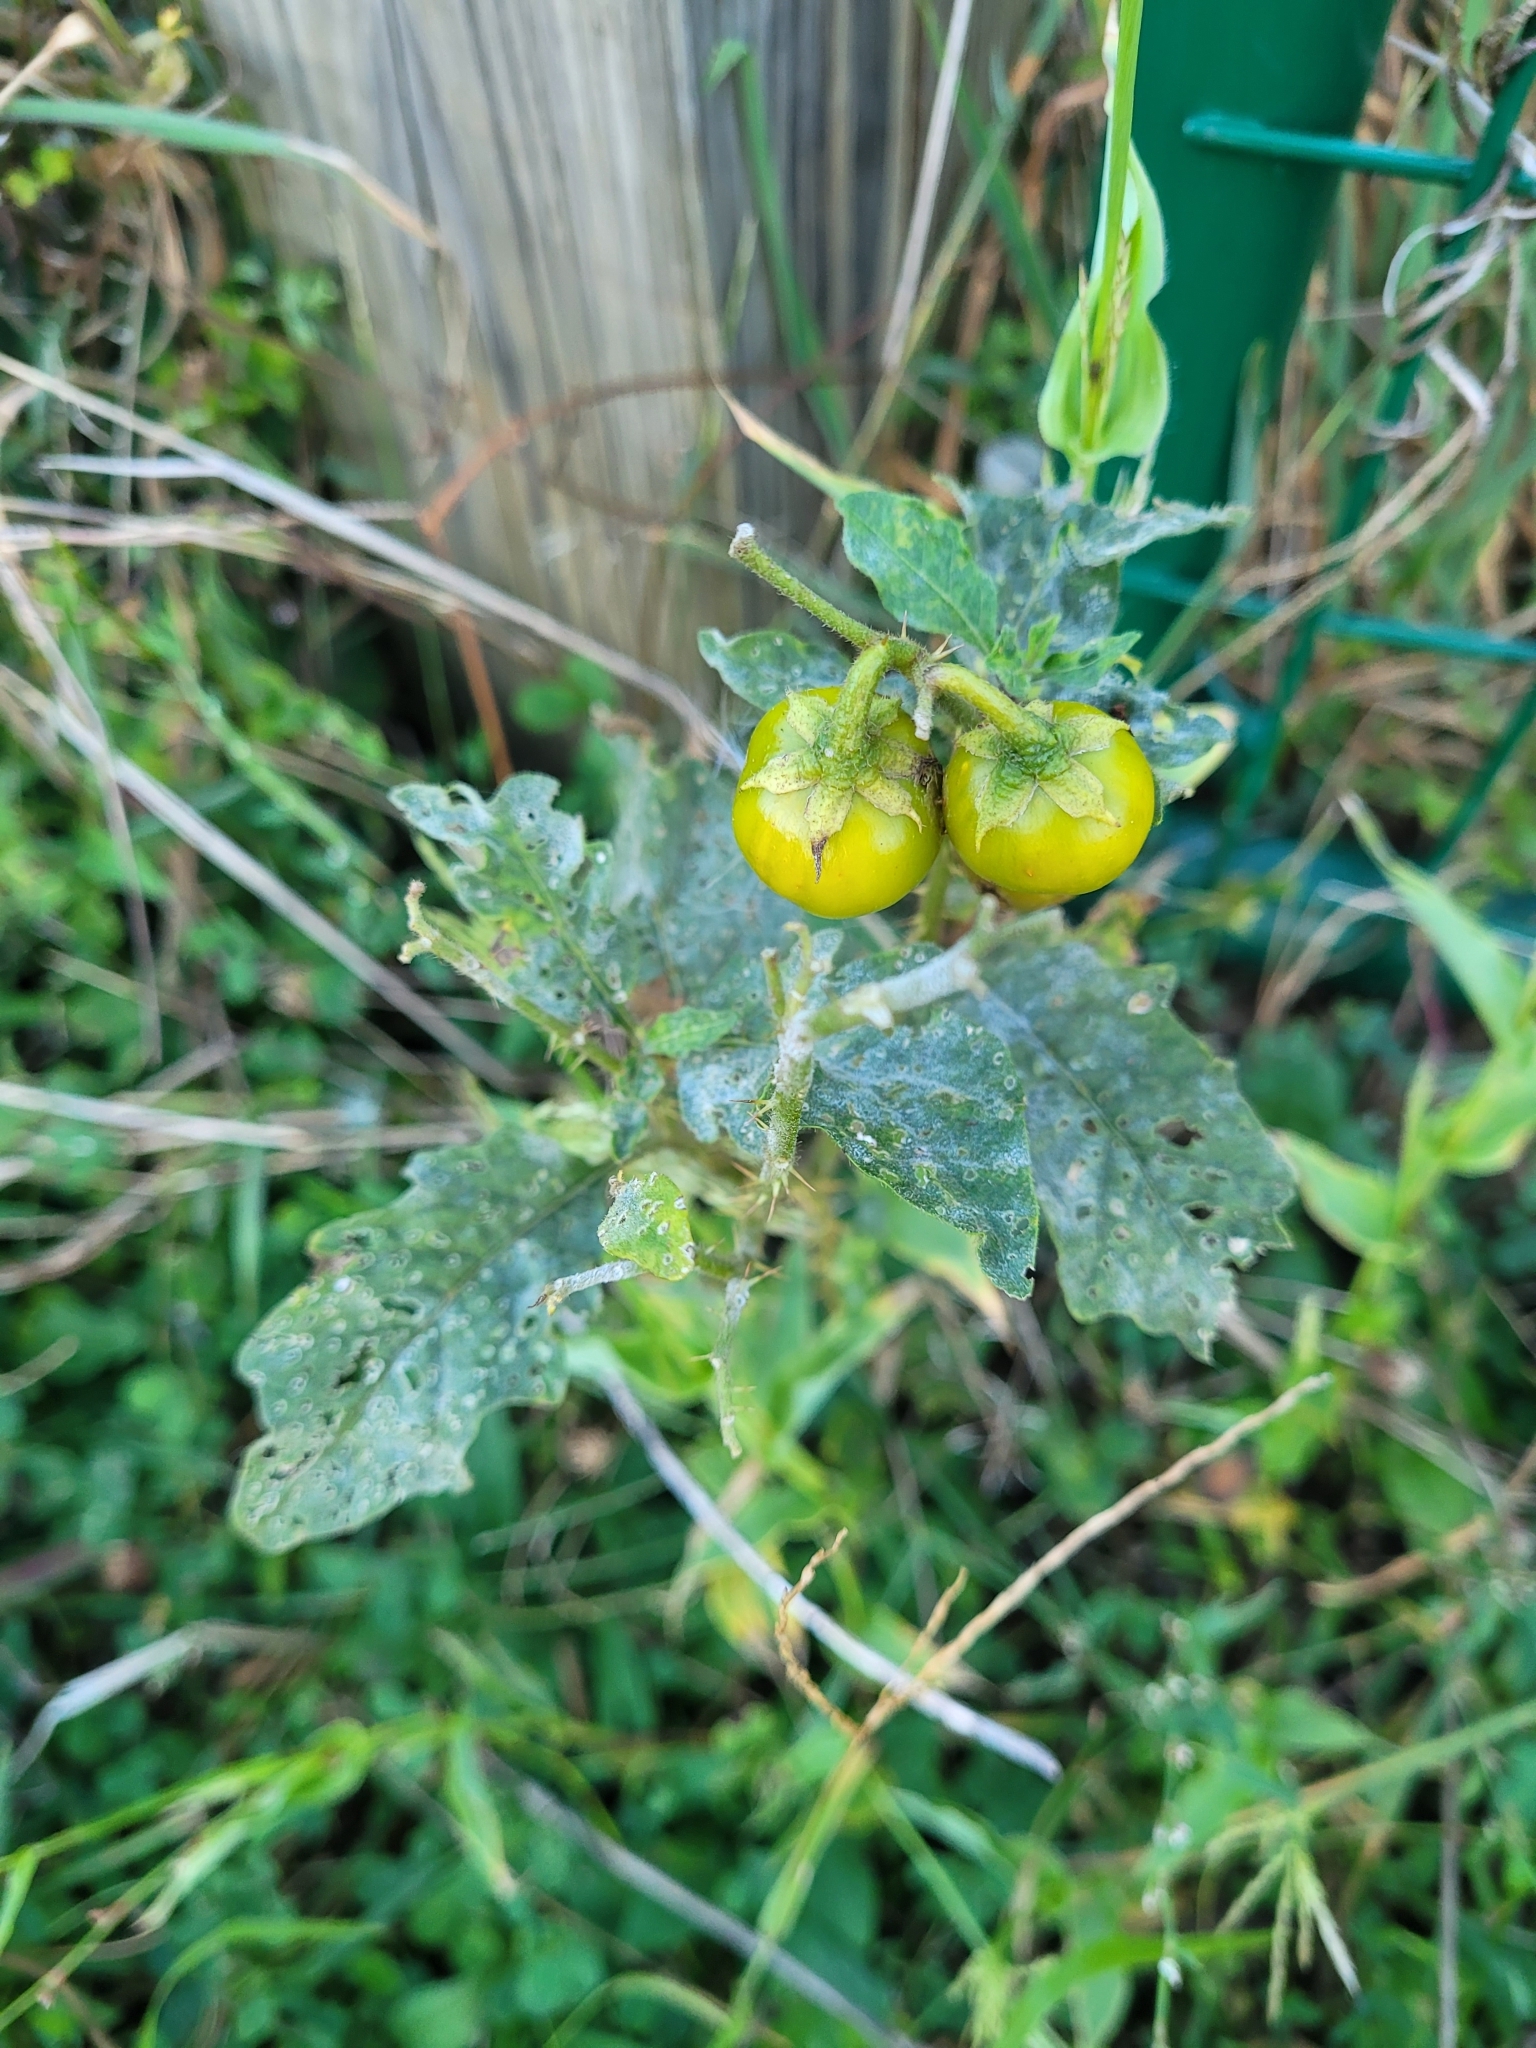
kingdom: Plantae
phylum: Tracheophyta
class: Magnoliopsida
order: Solanales
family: Solanaceae
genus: Solanum
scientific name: Solanum carolinense
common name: Horse-nettle
